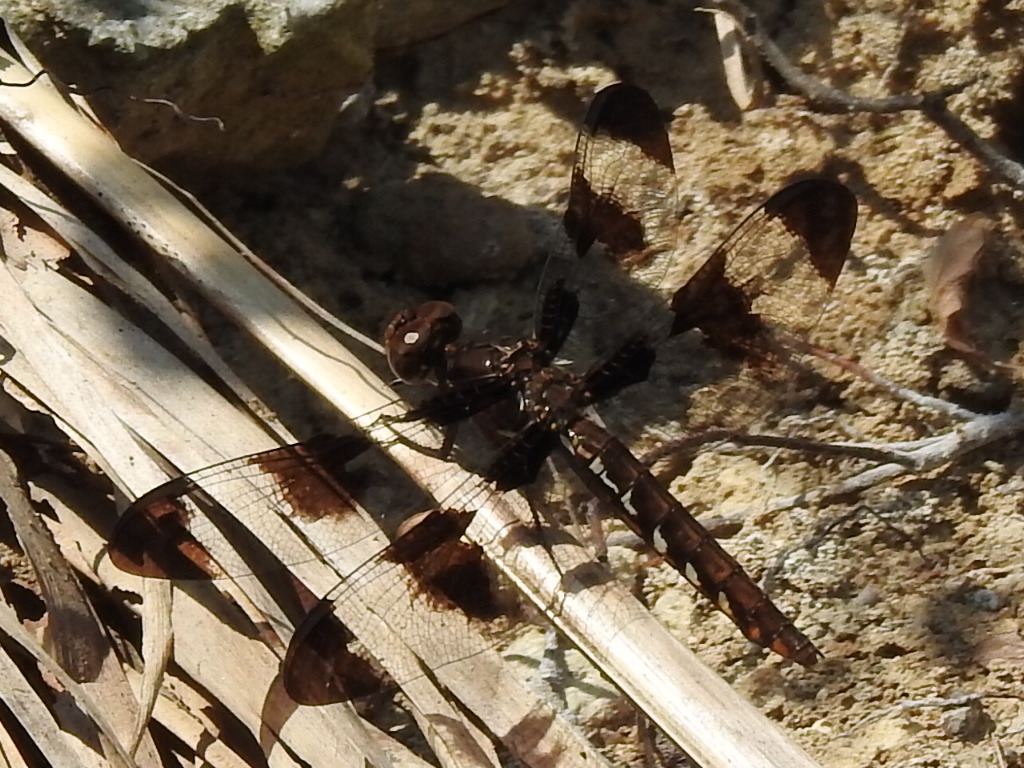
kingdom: Animalia
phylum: Arthropoda
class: Insecta
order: Odonata
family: Libellulidae
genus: Plathemis
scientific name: Plathemis lydia
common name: Common whitetail
